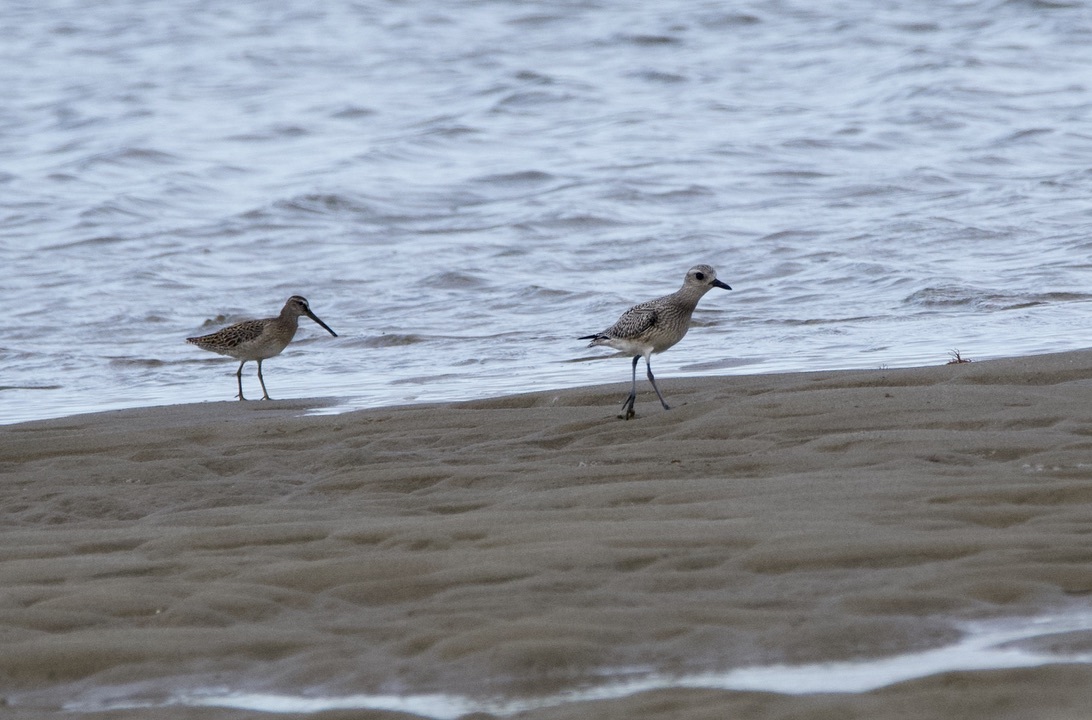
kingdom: Animalia
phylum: Chordata
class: Aves
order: Charadriiformes
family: Scolopacidae
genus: Limnodromus
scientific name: Limnodromus griseus
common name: Short-billed dowitcher
